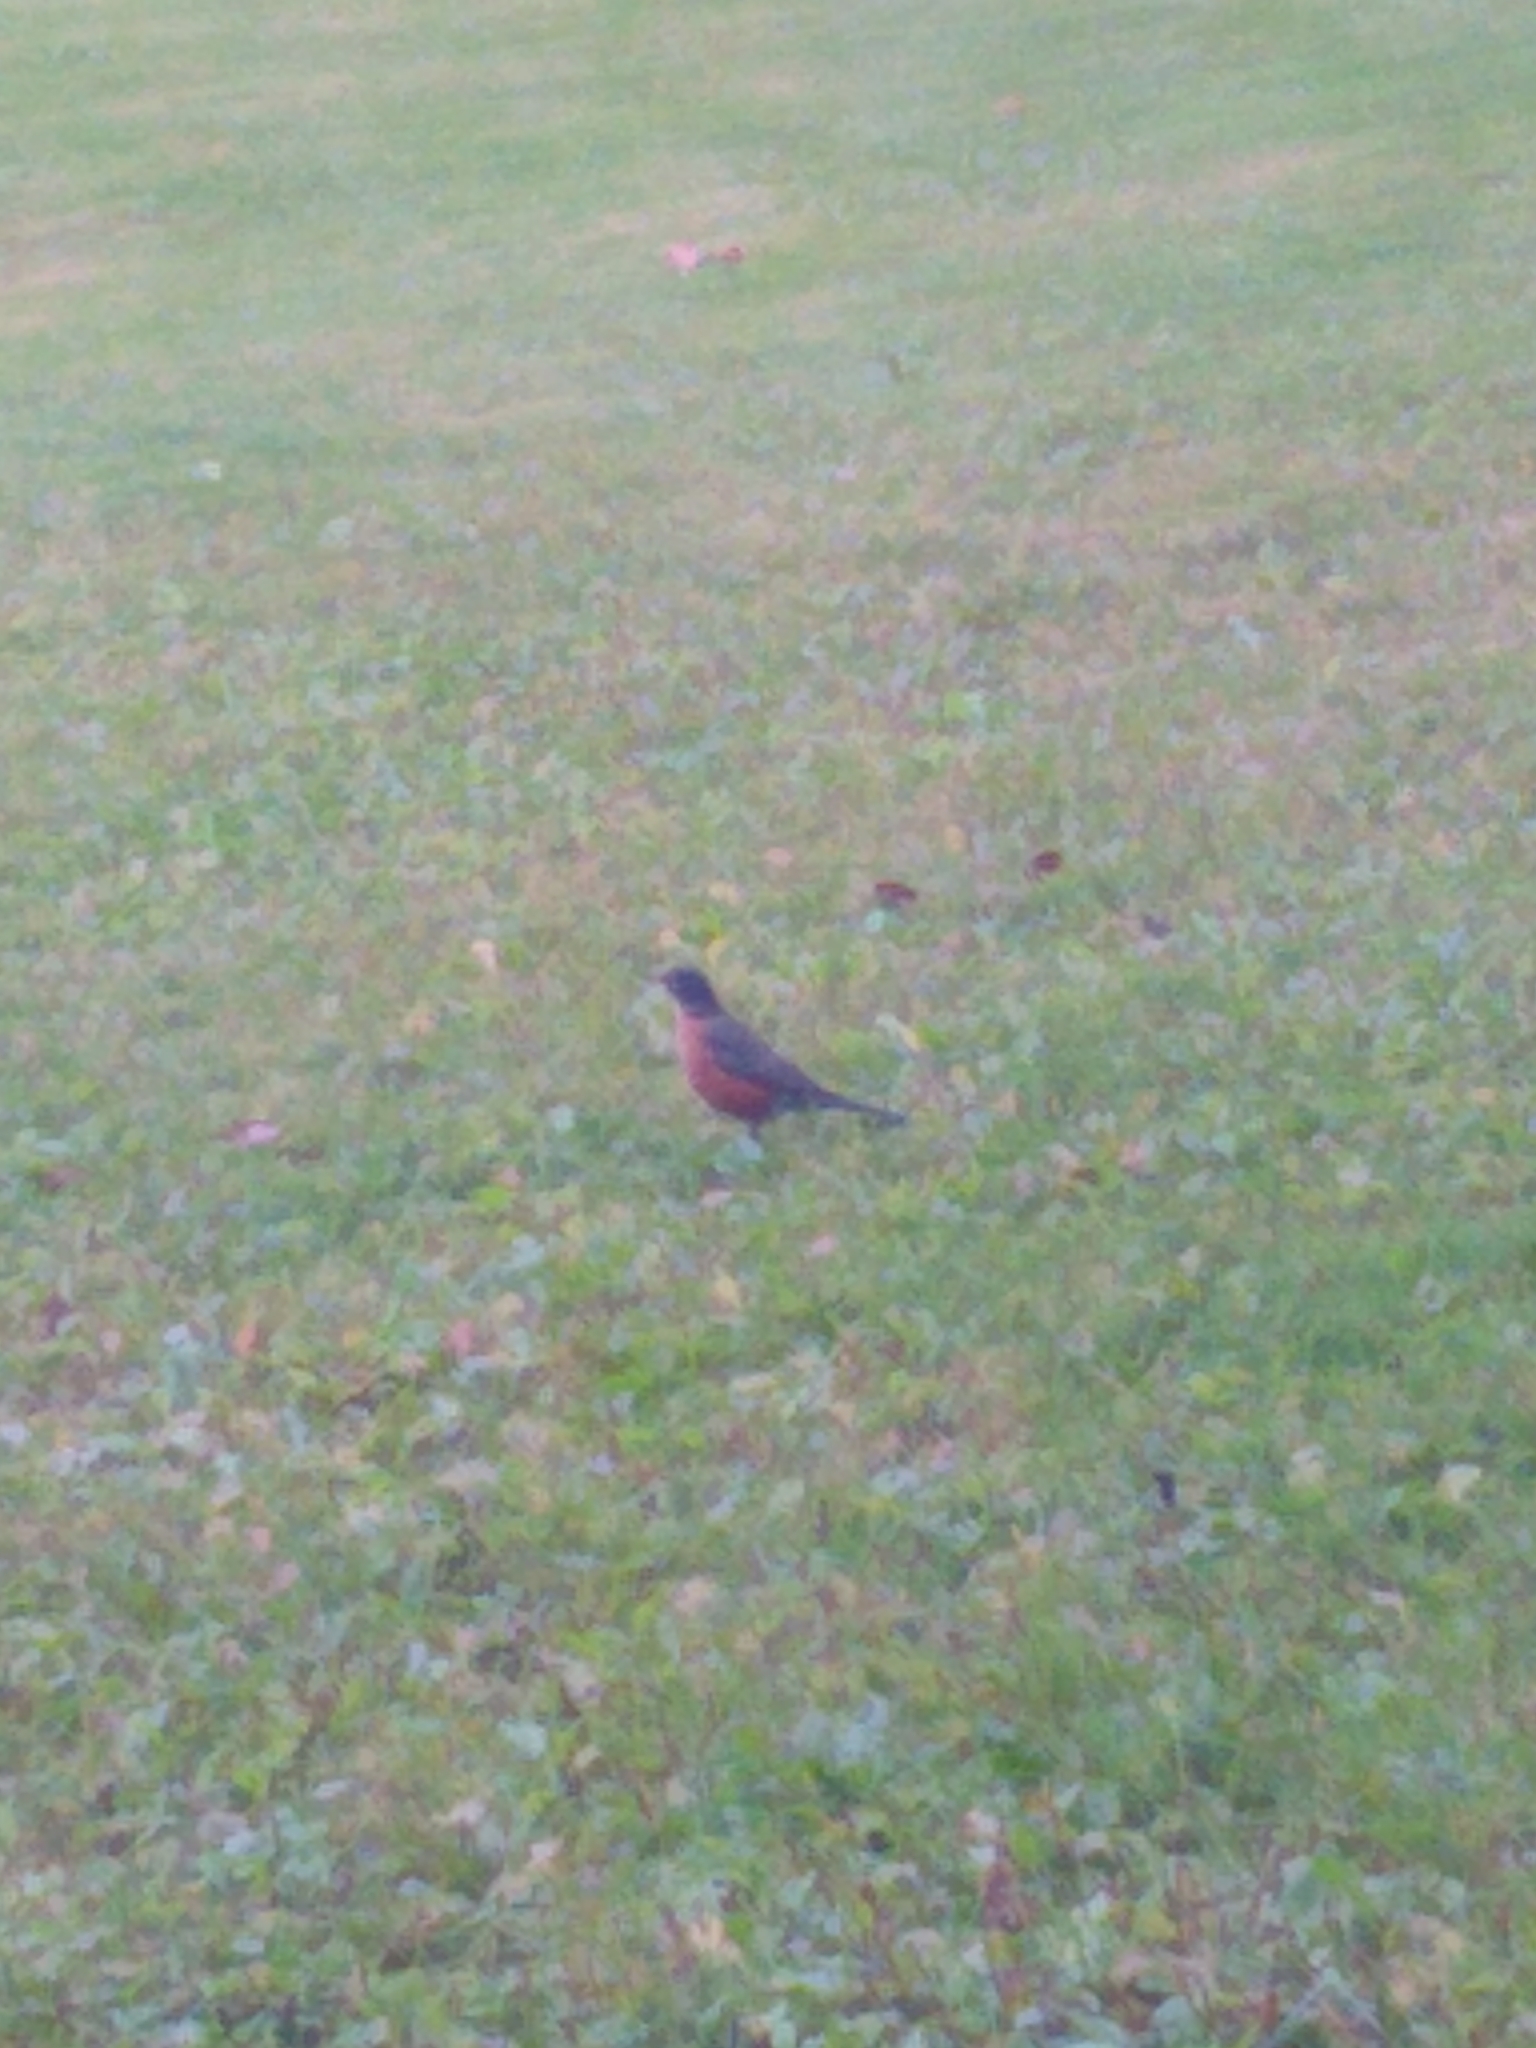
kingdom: Animalia
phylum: Chordata
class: Aves
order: Passeriformes
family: Turdidae
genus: Turdus
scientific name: Turdus migratorius
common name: American robin
